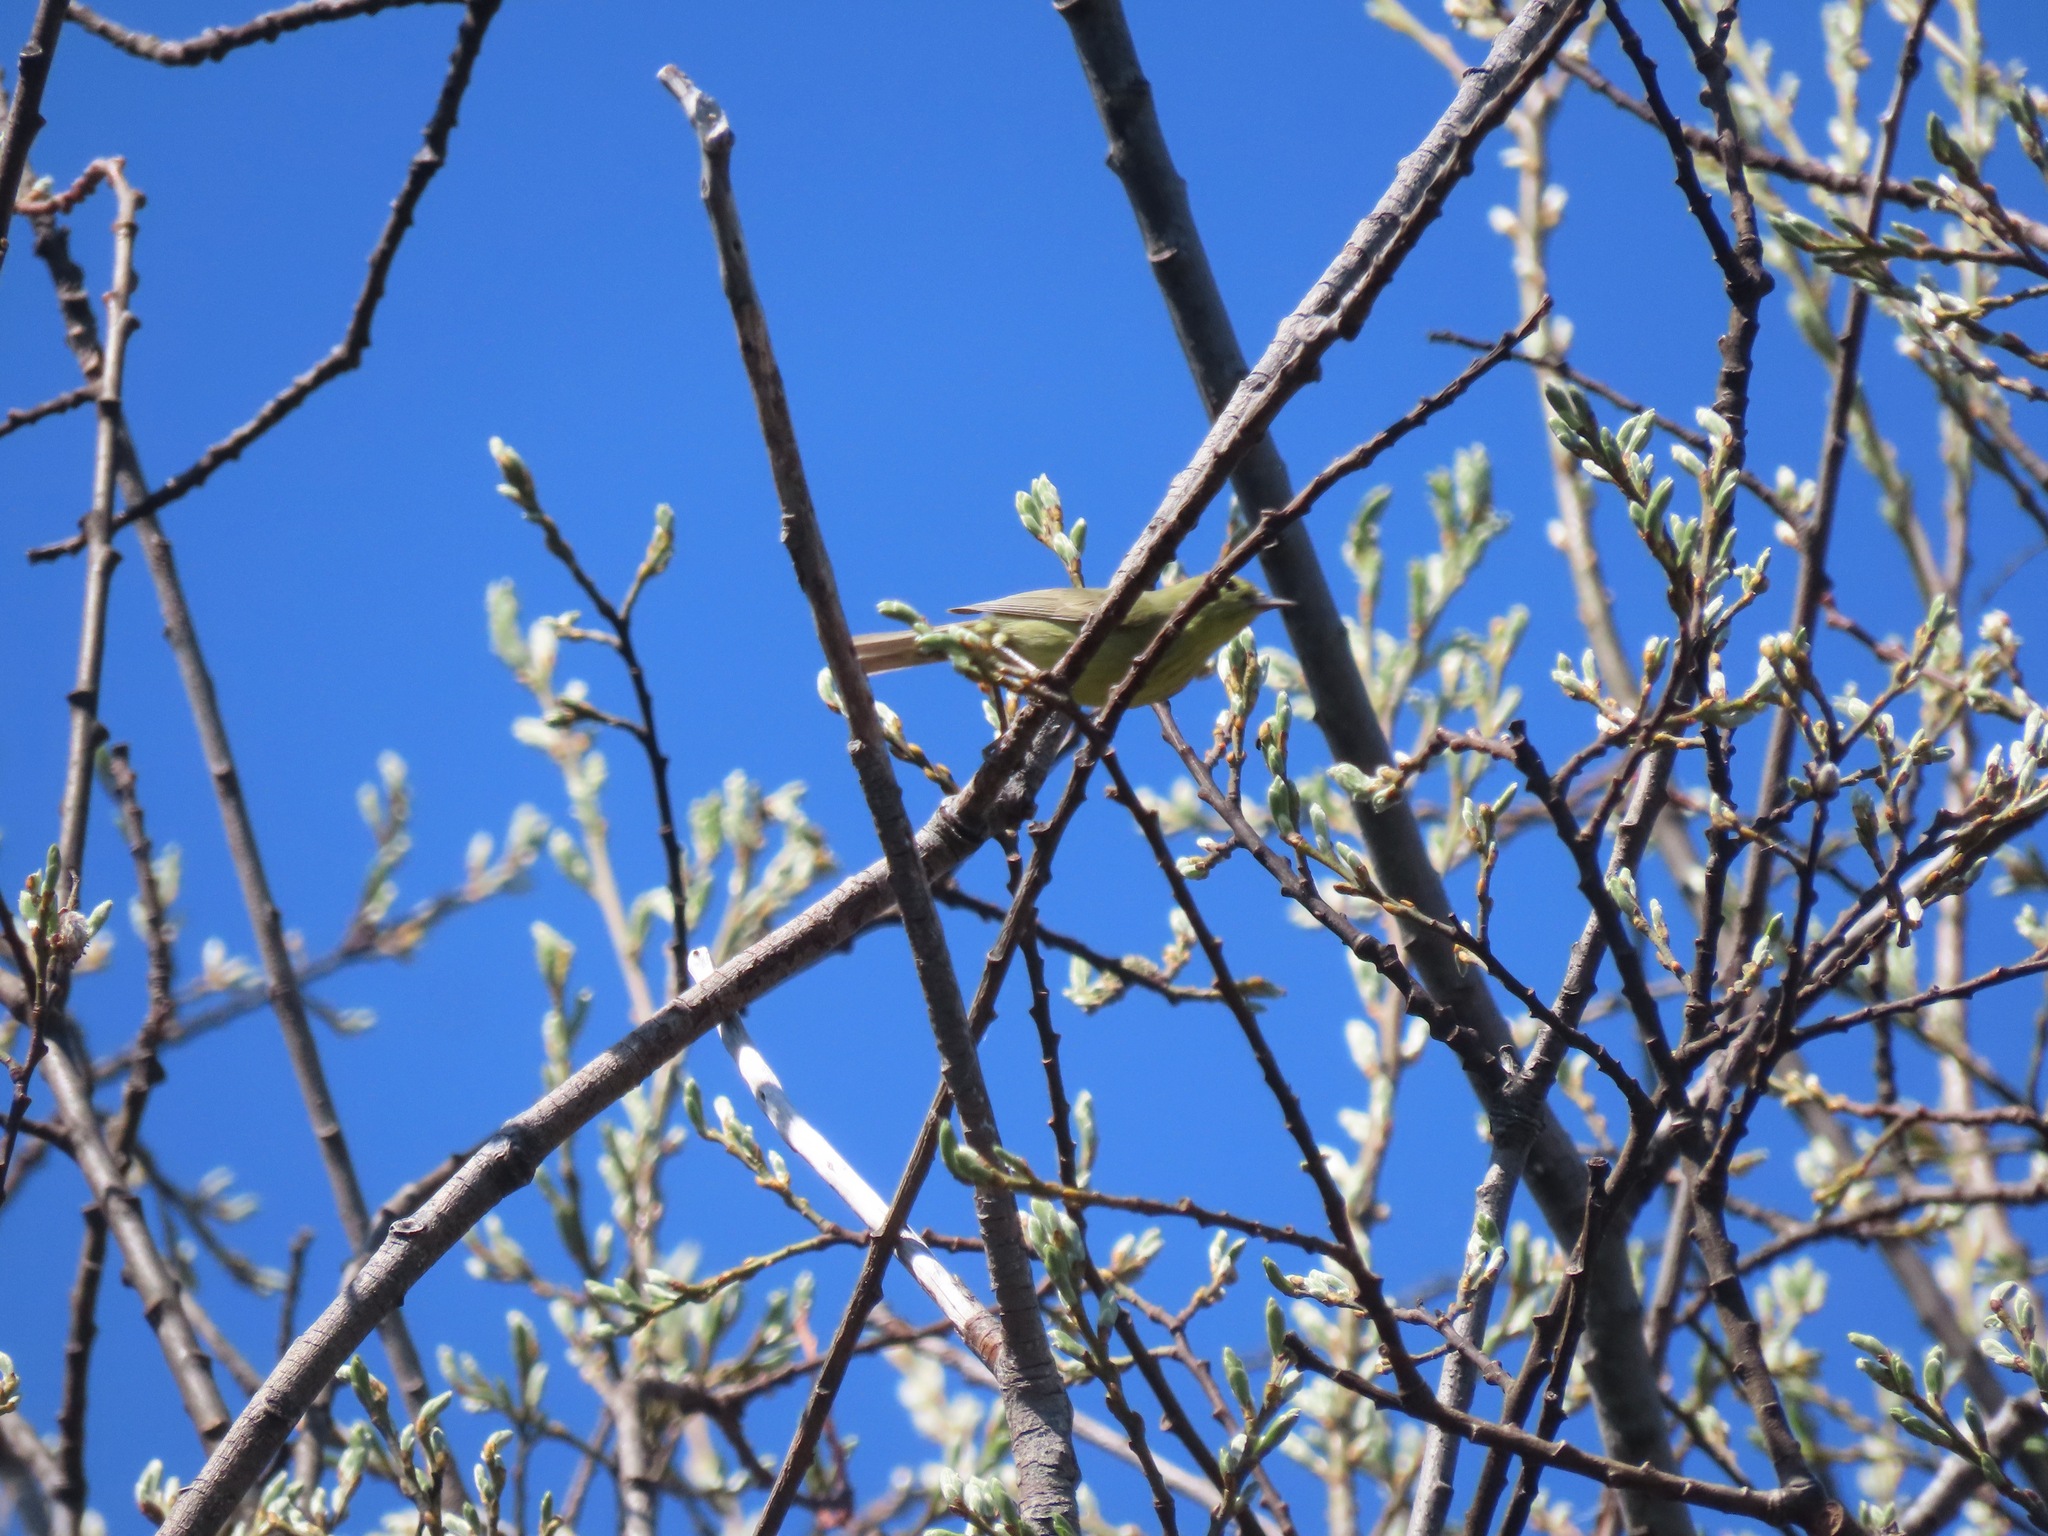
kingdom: Animalia
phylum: Chordata
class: Aves
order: Passeriformes
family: Parulidae
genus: Leiothlypis
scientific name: Leiothlypis celata
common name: Orange-crowned warbler
